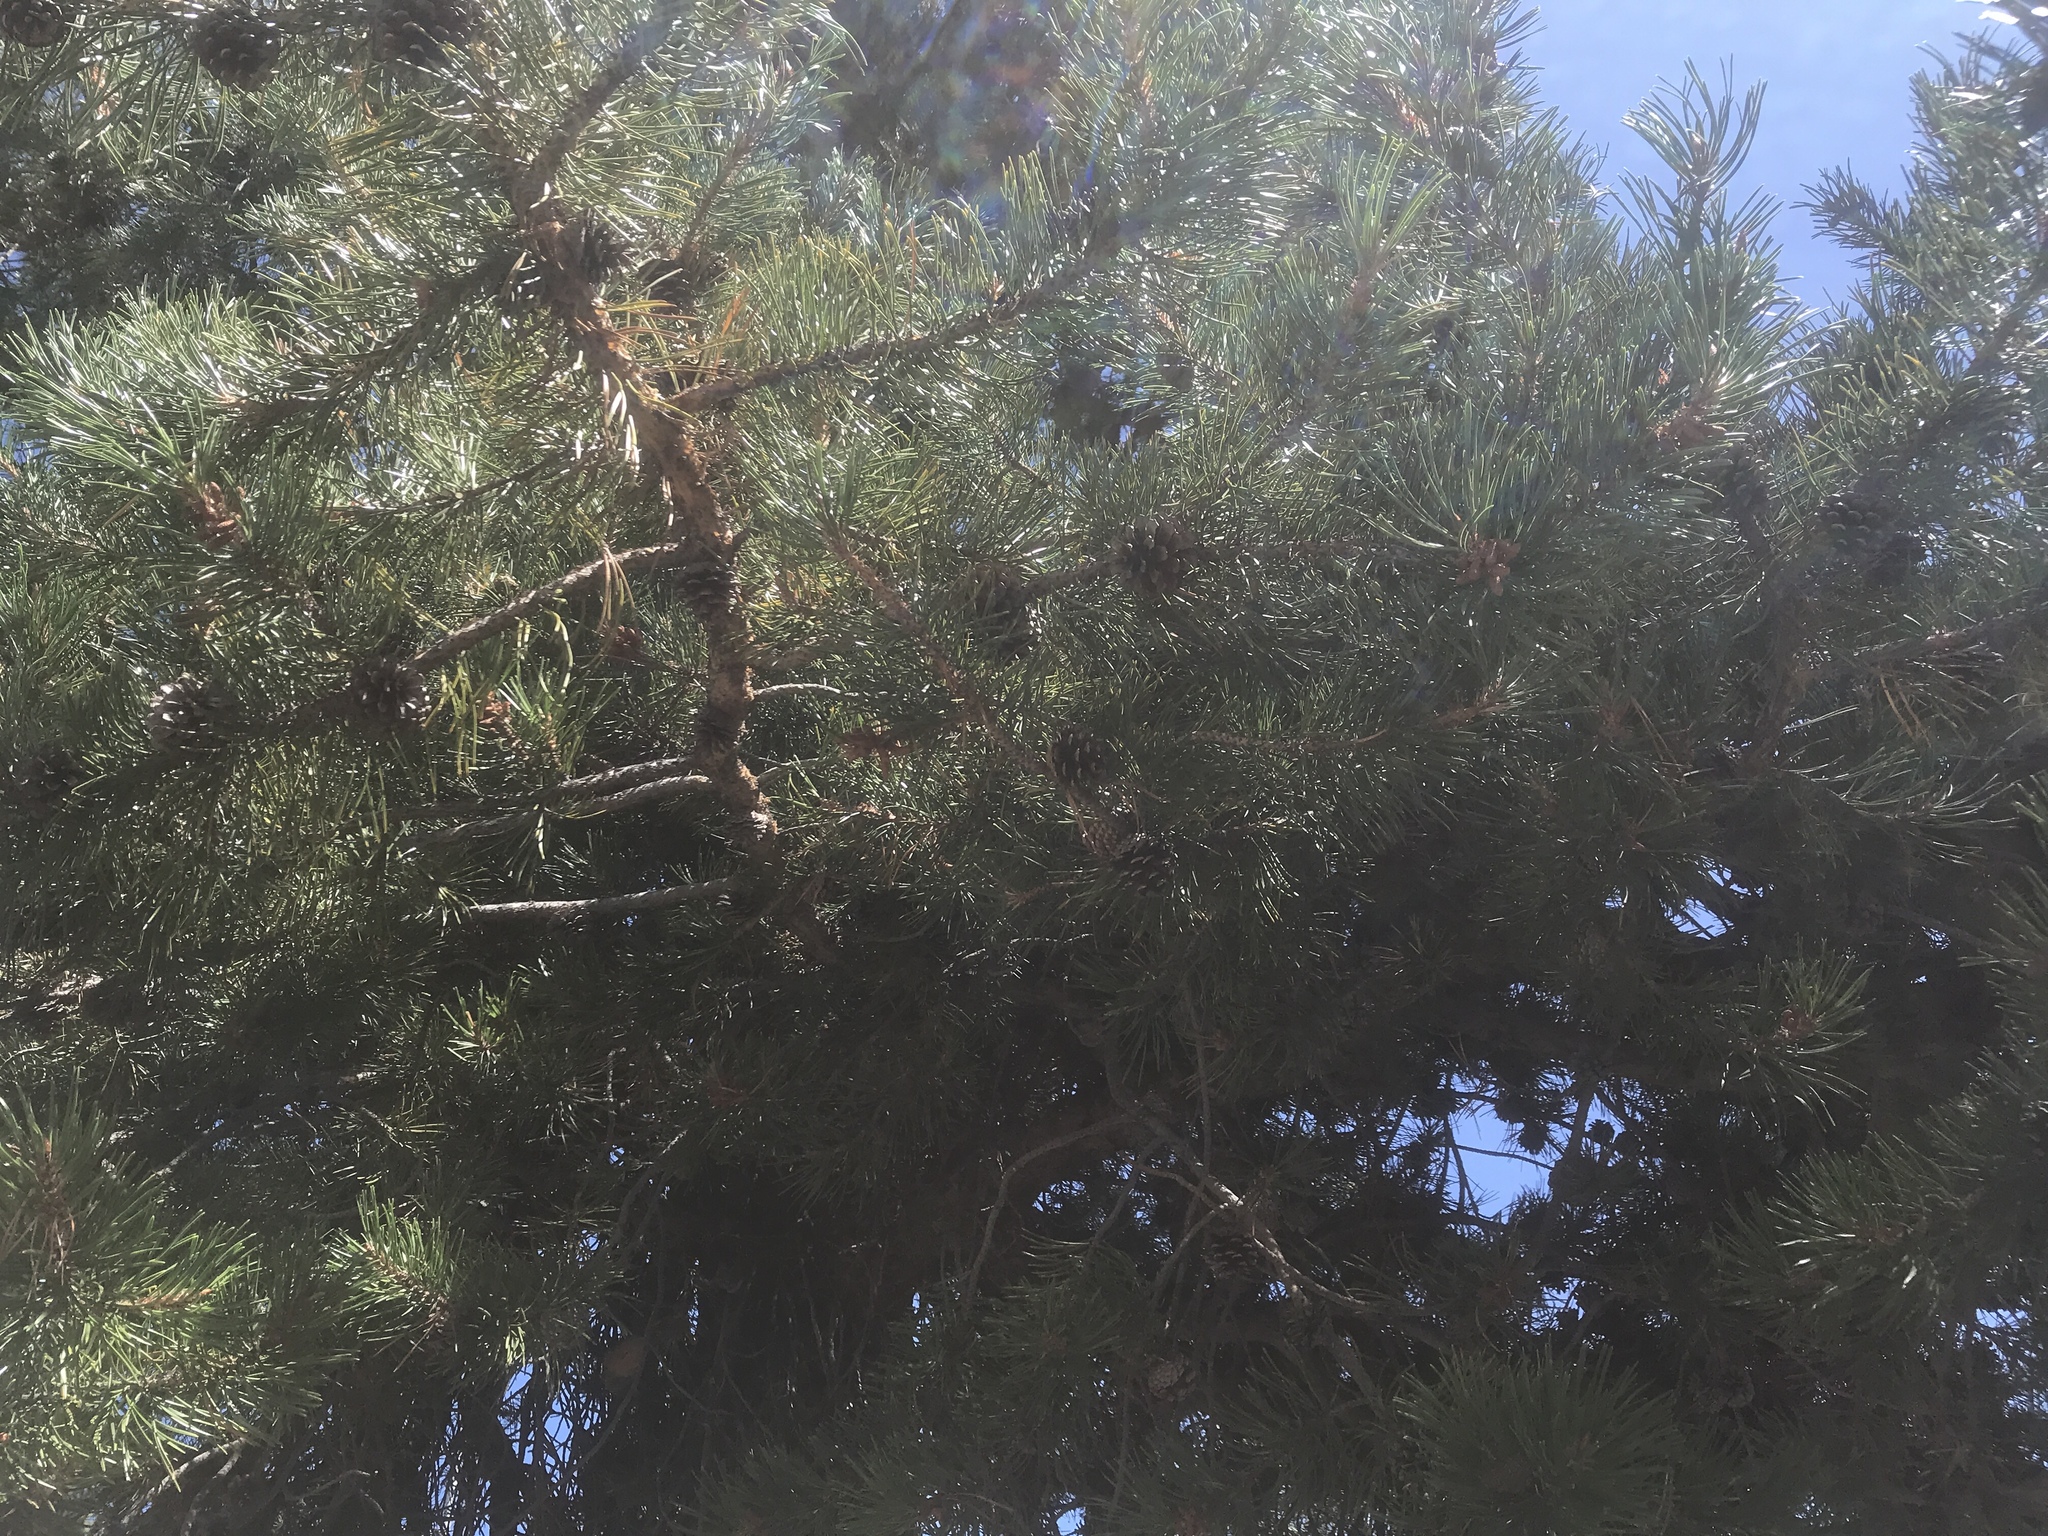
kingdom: Plantae
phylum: Tracheophyta
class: Pinopsida
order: Pinales
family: Pinaceae
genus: Pinus
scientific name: Pinus contorta
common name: Lodgepole pine
